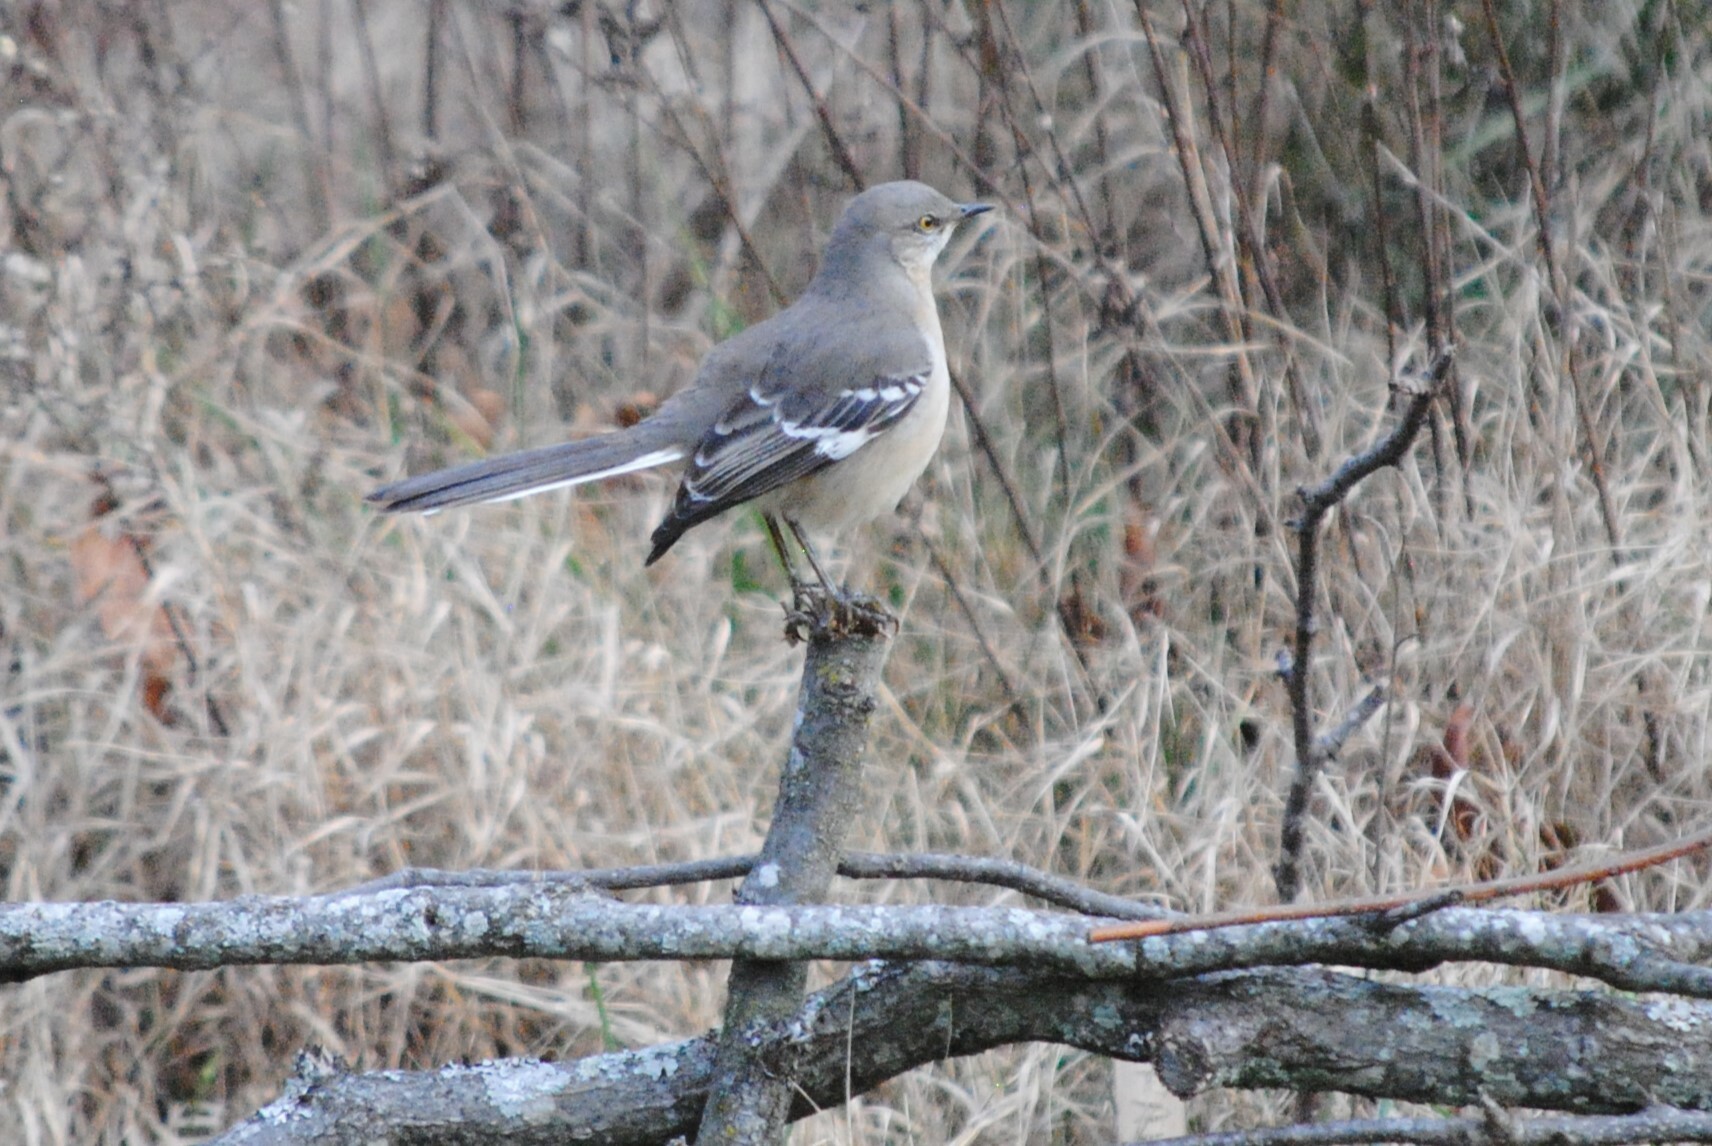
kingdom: Animalia
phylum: Chordata
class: Aves
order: Passeriformes
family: Mimidae
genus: Mimus
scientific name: Mimus polyglottos
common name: Northern mockingbird
